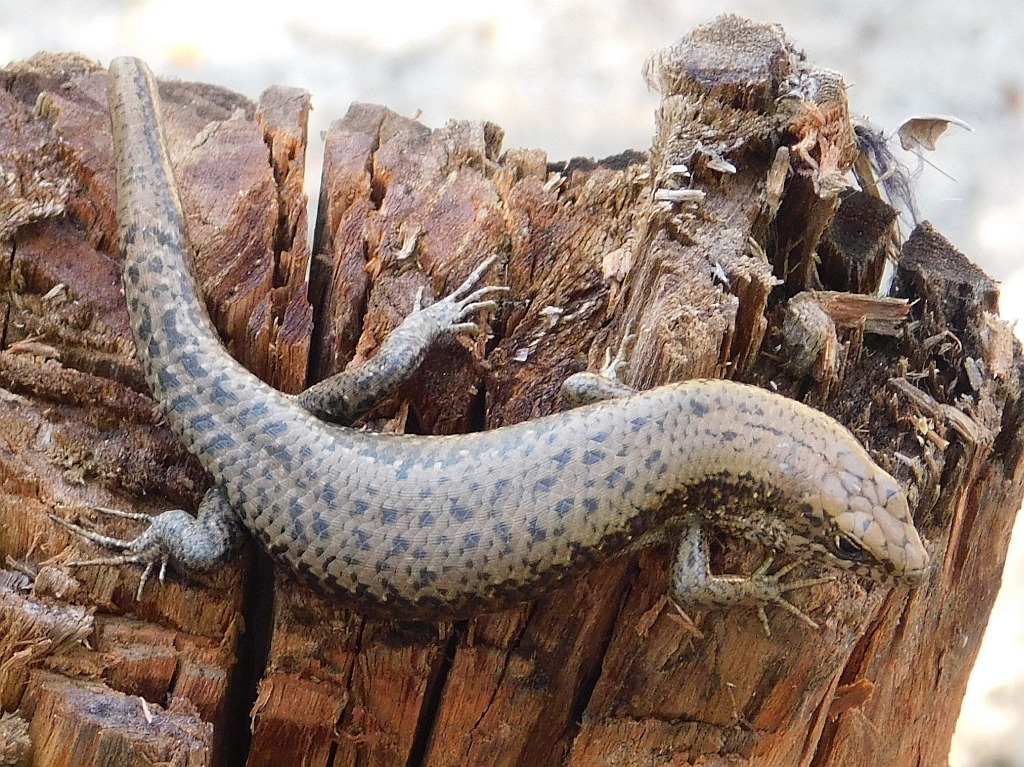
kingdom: Animalia
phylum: Chordata
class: Squamata
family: Scincidae
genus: Trachylepis
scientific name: Trachylepis maculilabris
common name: Speckle-lipped mabuya
